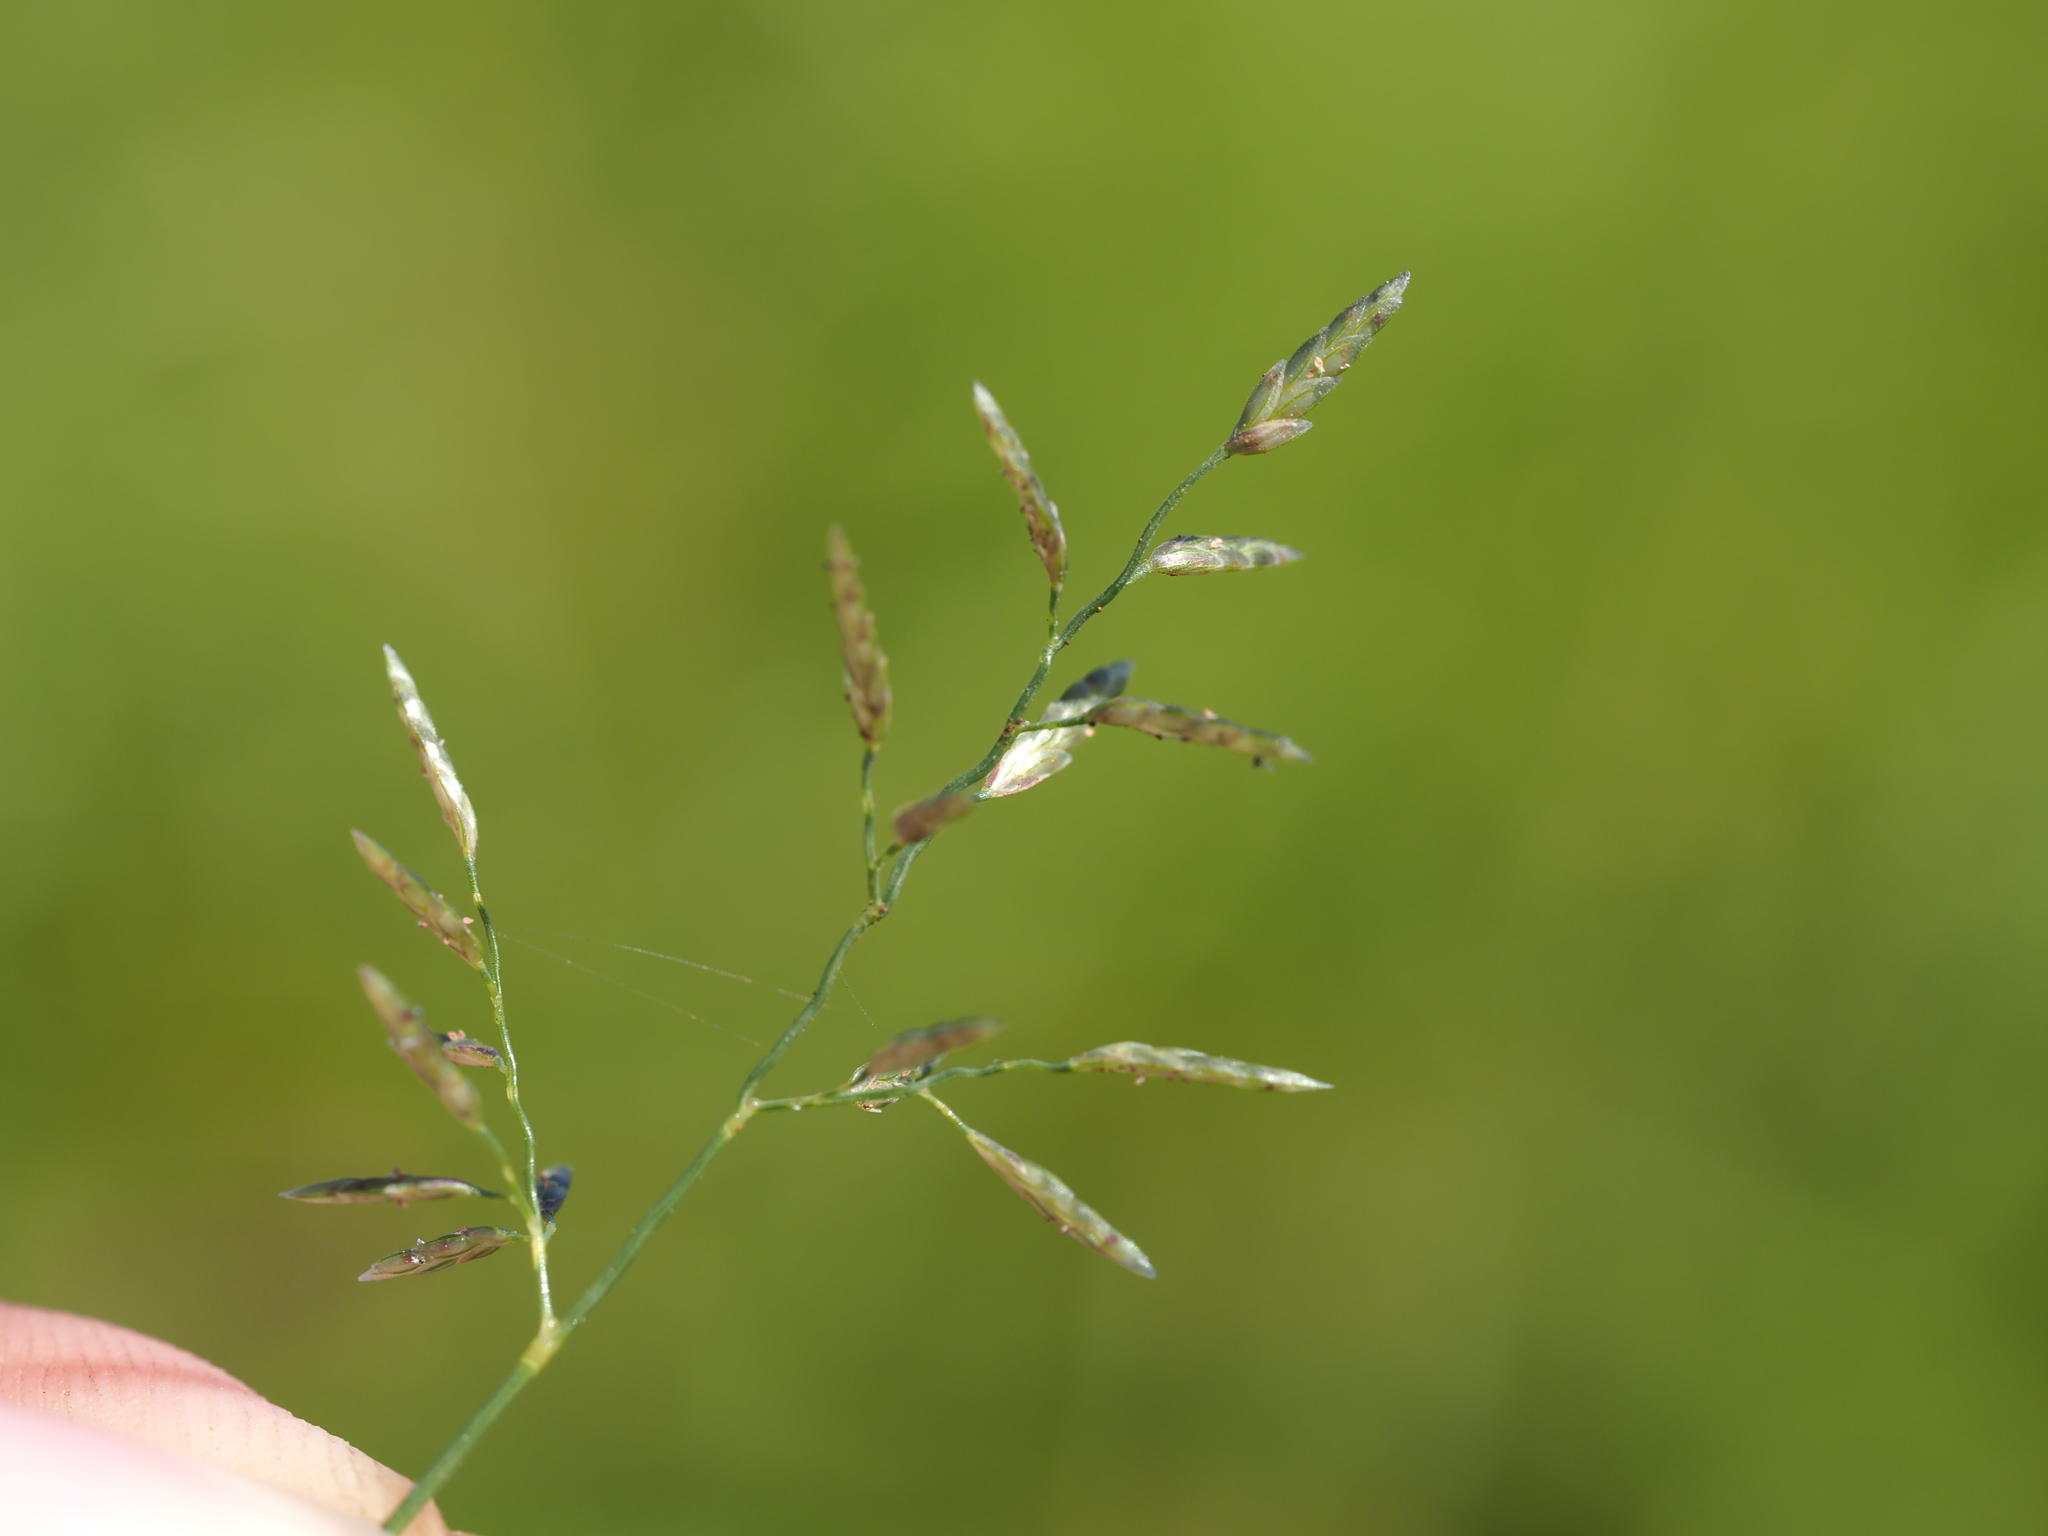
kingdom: Plantae
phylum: Tracheophyta
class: Liliopsida
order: Poales
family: Poaceae
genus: Eragrostis
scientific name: Eragrostis barrelieri
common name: Mediterranean lovegrass
